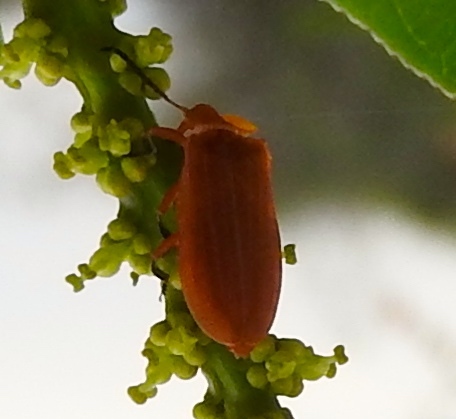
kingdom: Animalia
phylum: Arthropoda
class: Insecta
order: Coleoptera
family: Lycidae
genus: Lycus
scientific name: Lycus
